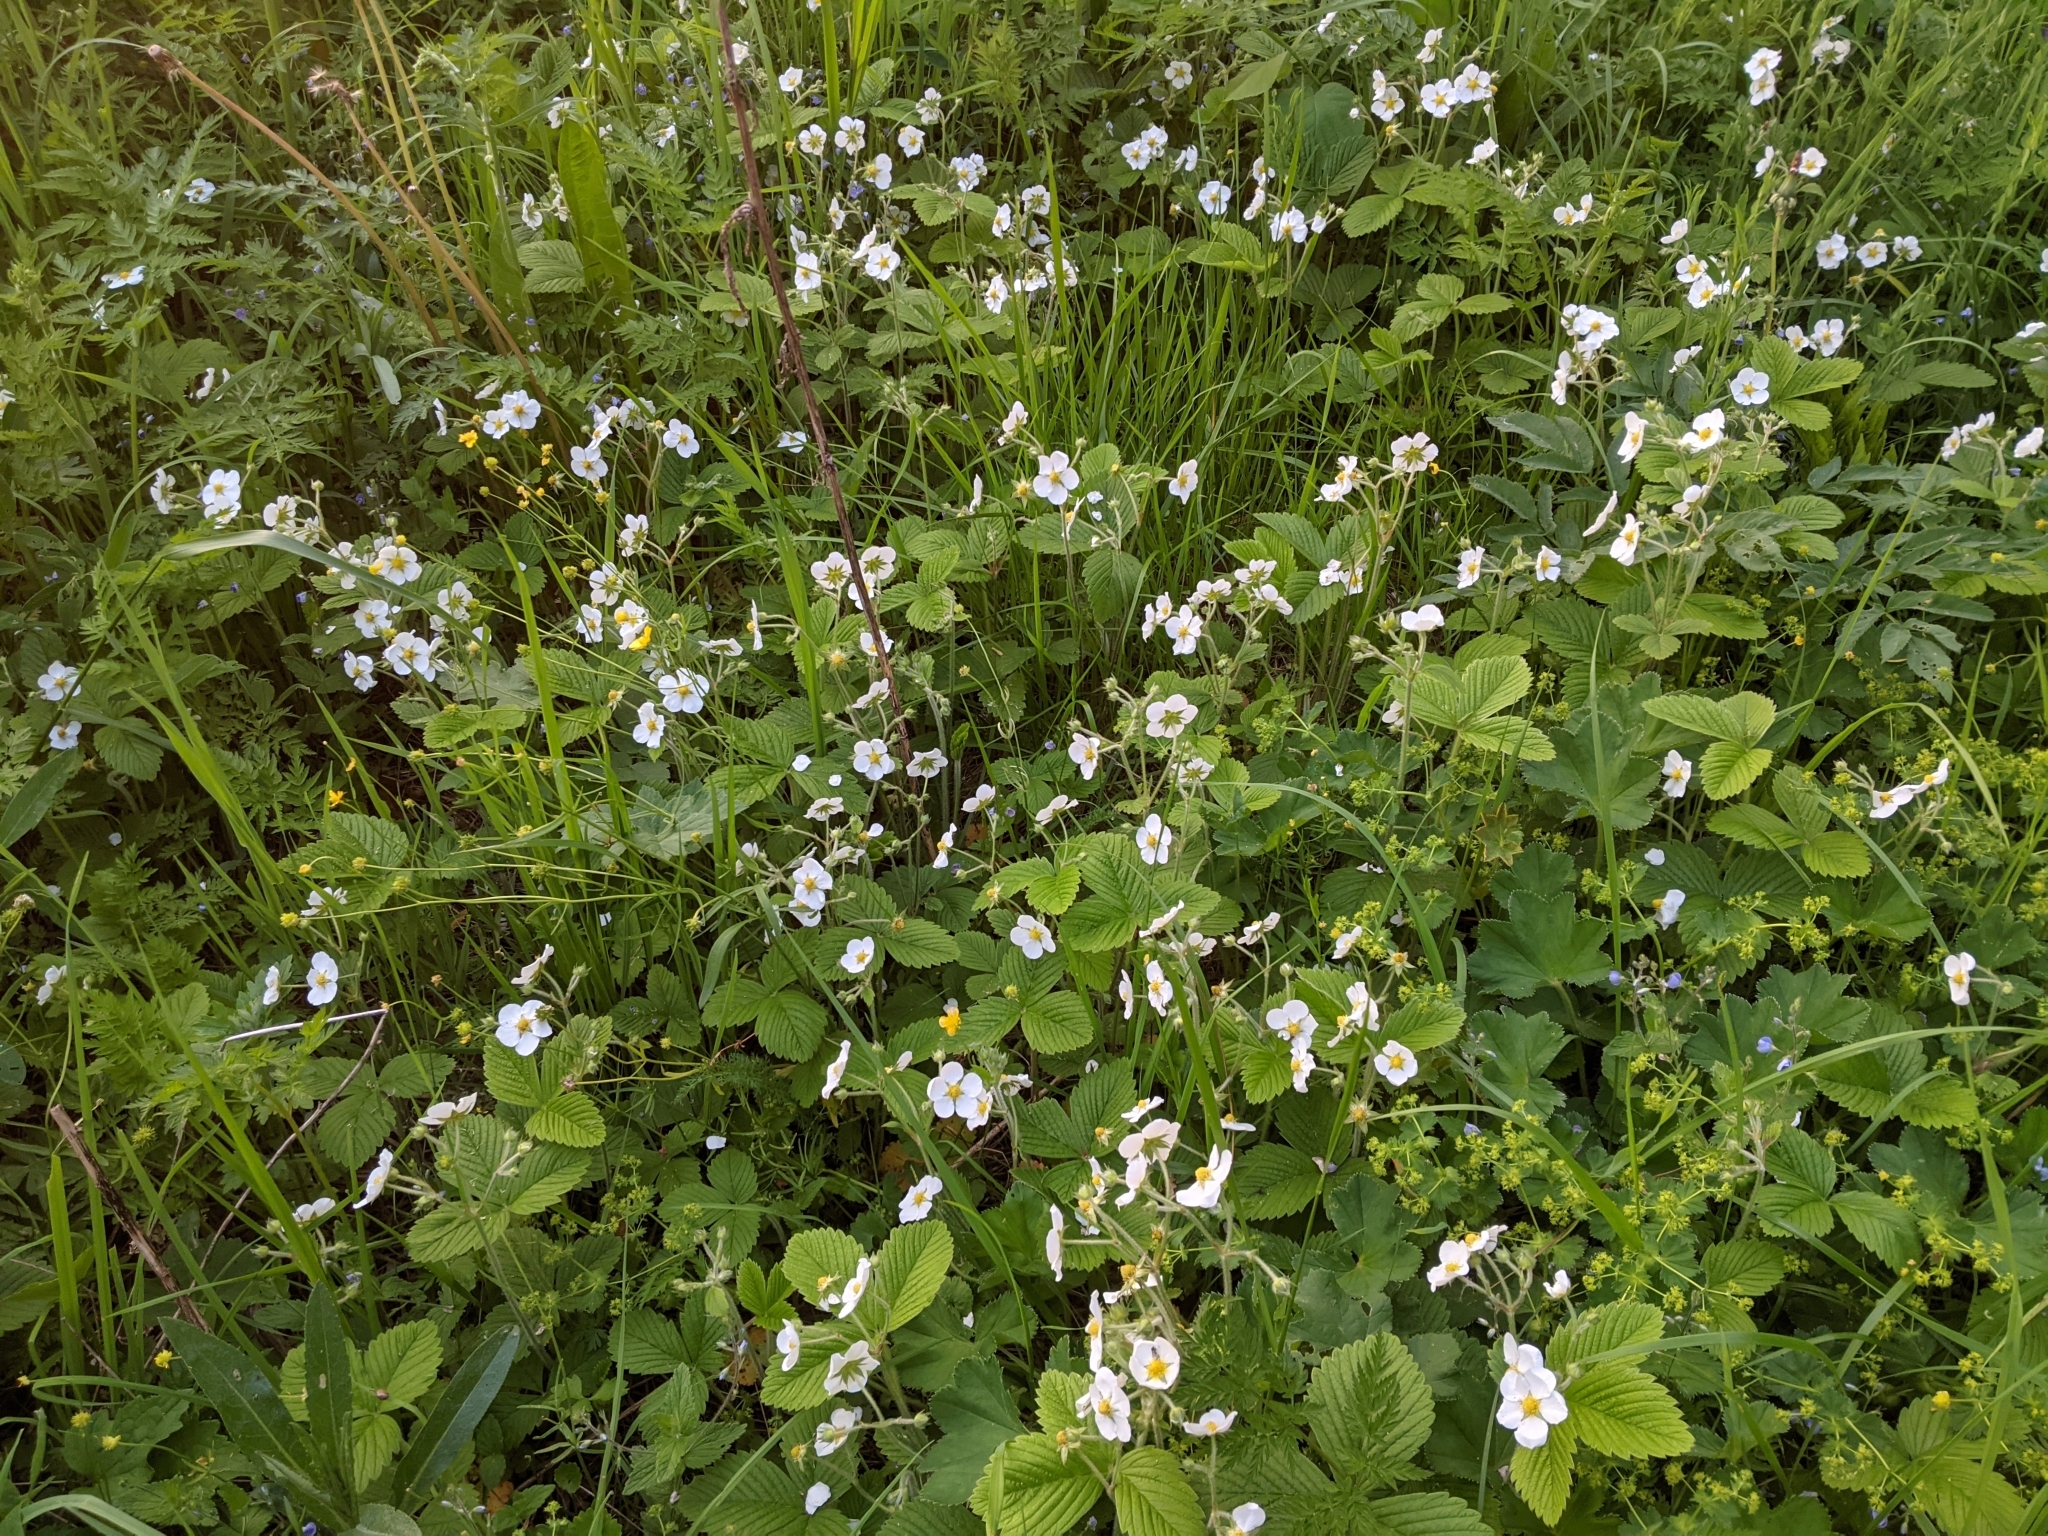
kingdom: Plantae
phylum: Tracheophyta
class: Magnoliopsida
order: Rosales
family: Rosaceae
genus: Fragaria
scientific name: Fragaria moschata
